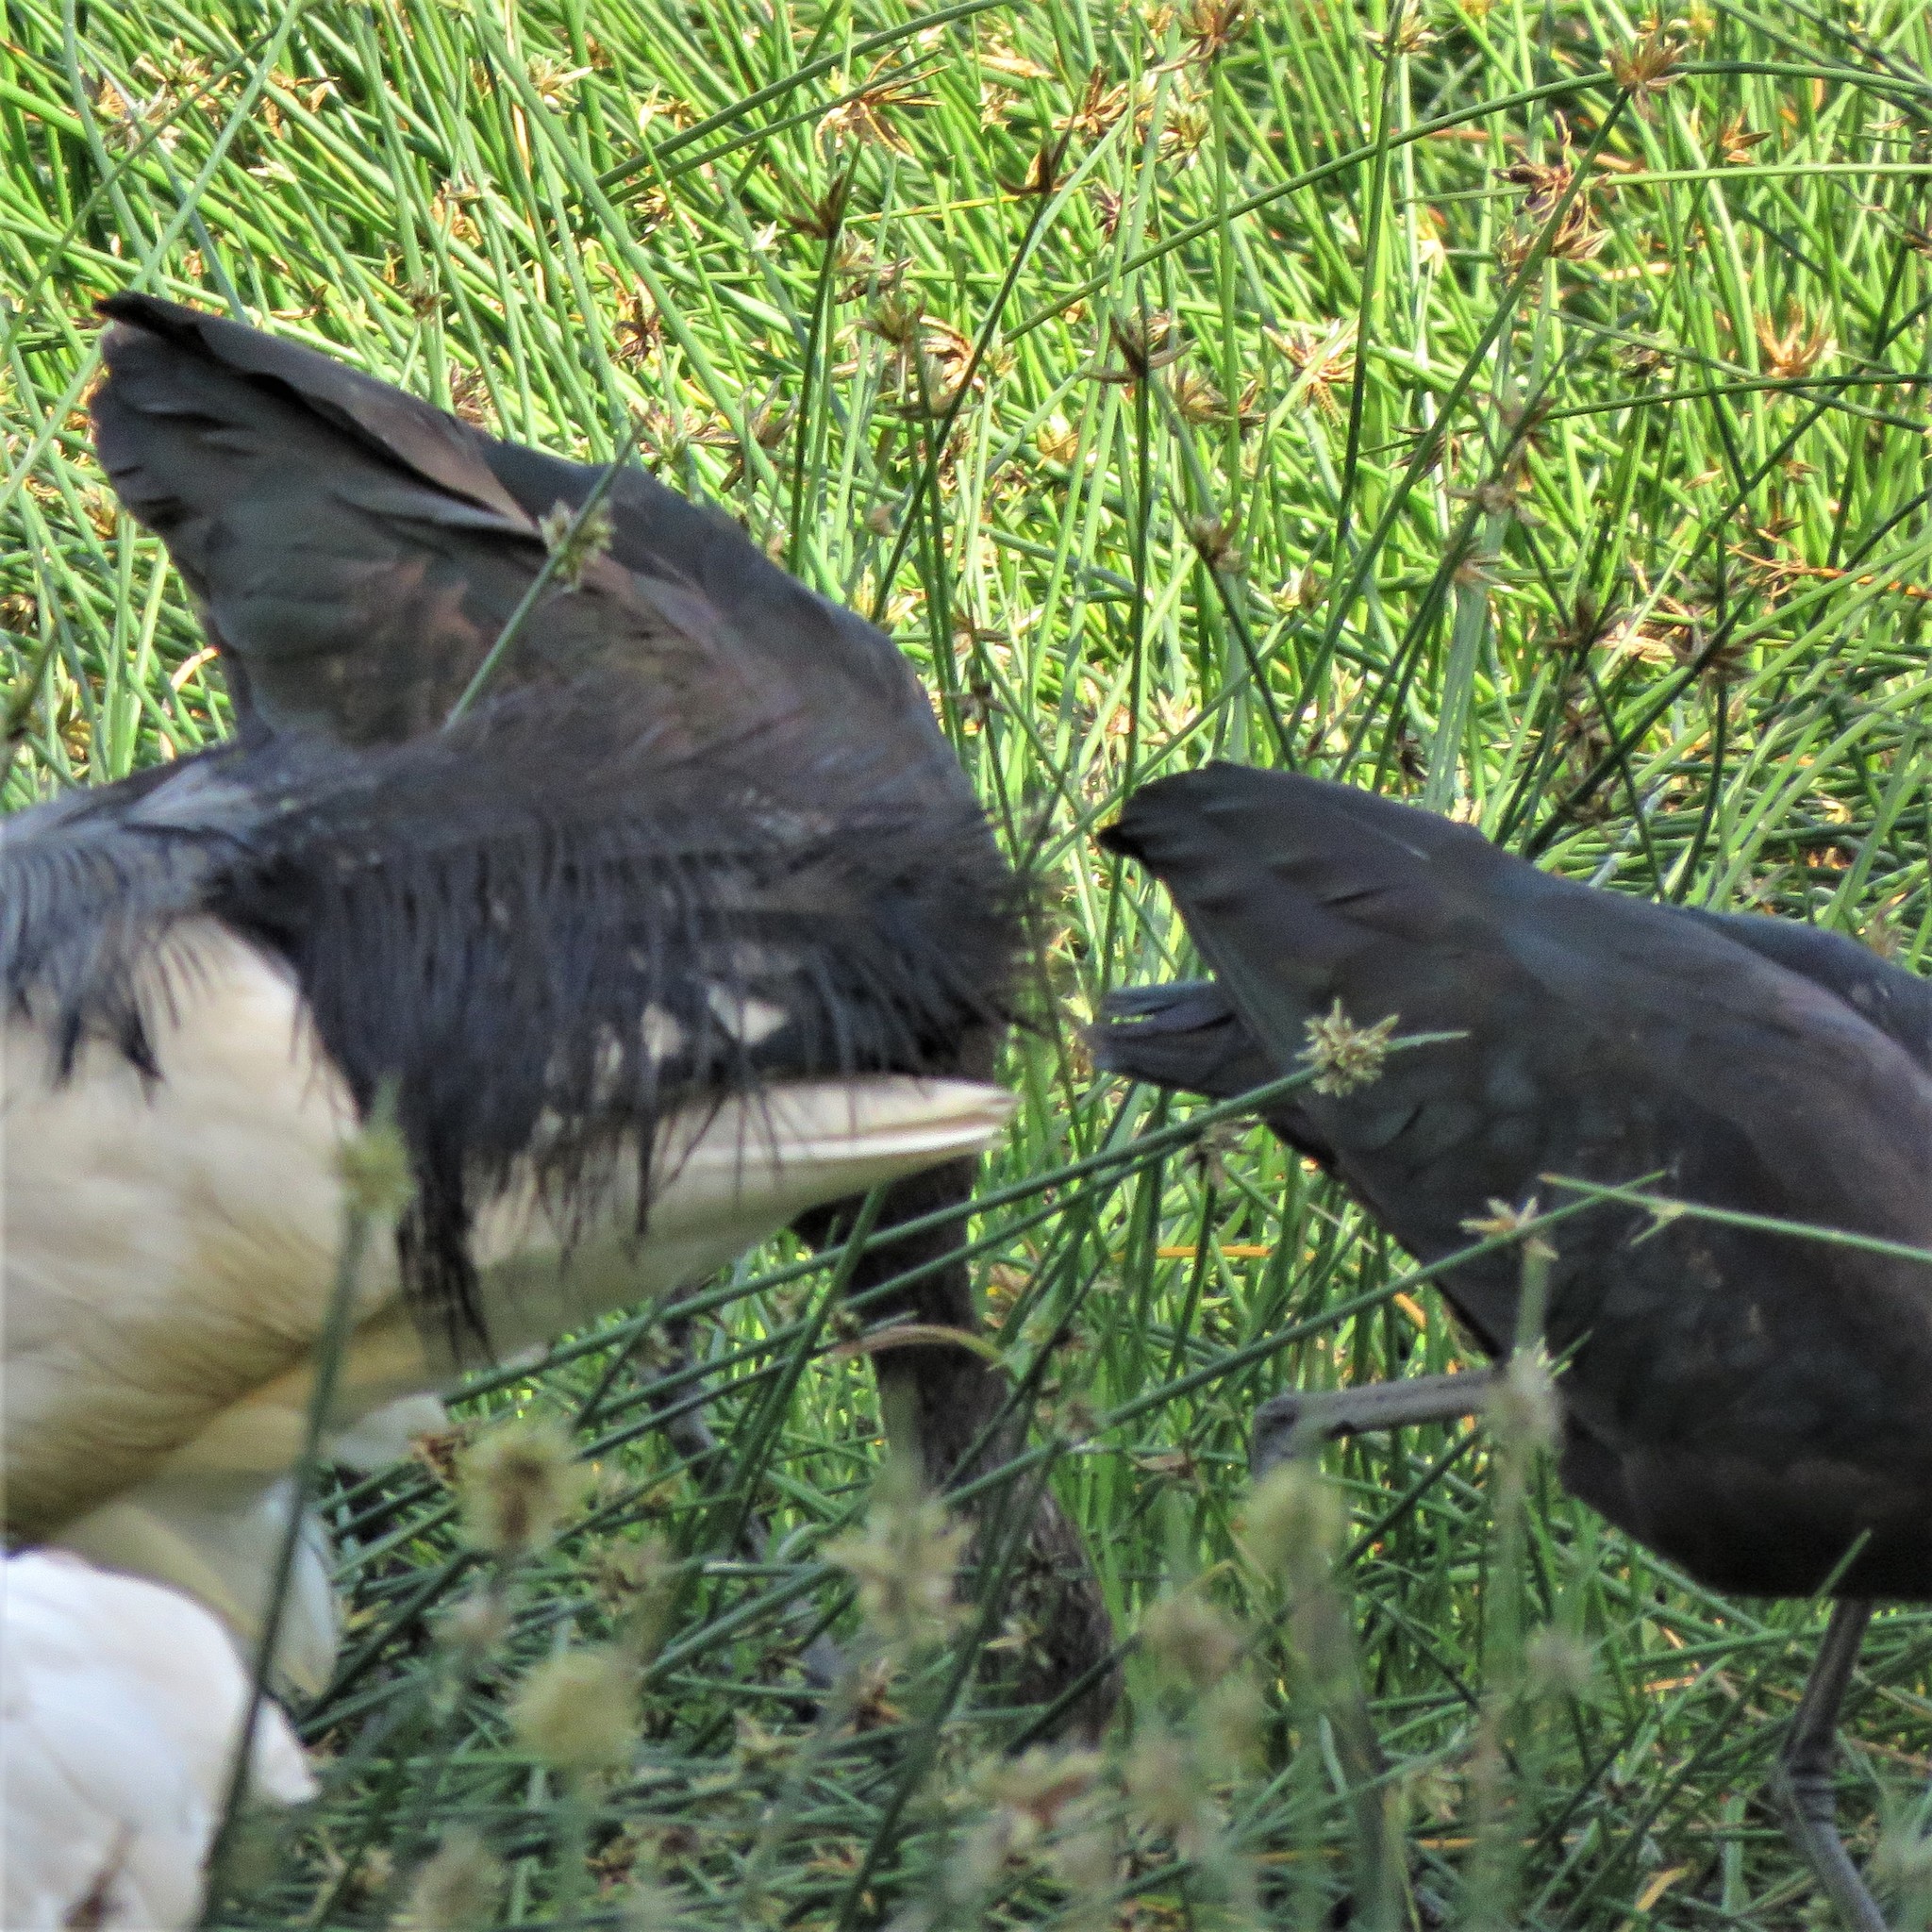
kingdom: Animalia
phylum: Chordata
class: Aves
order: Pelecaniformes
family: Threskiornithidae
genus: Plegadis
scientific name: Plegadis falcinellus
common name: Glossy ibis
